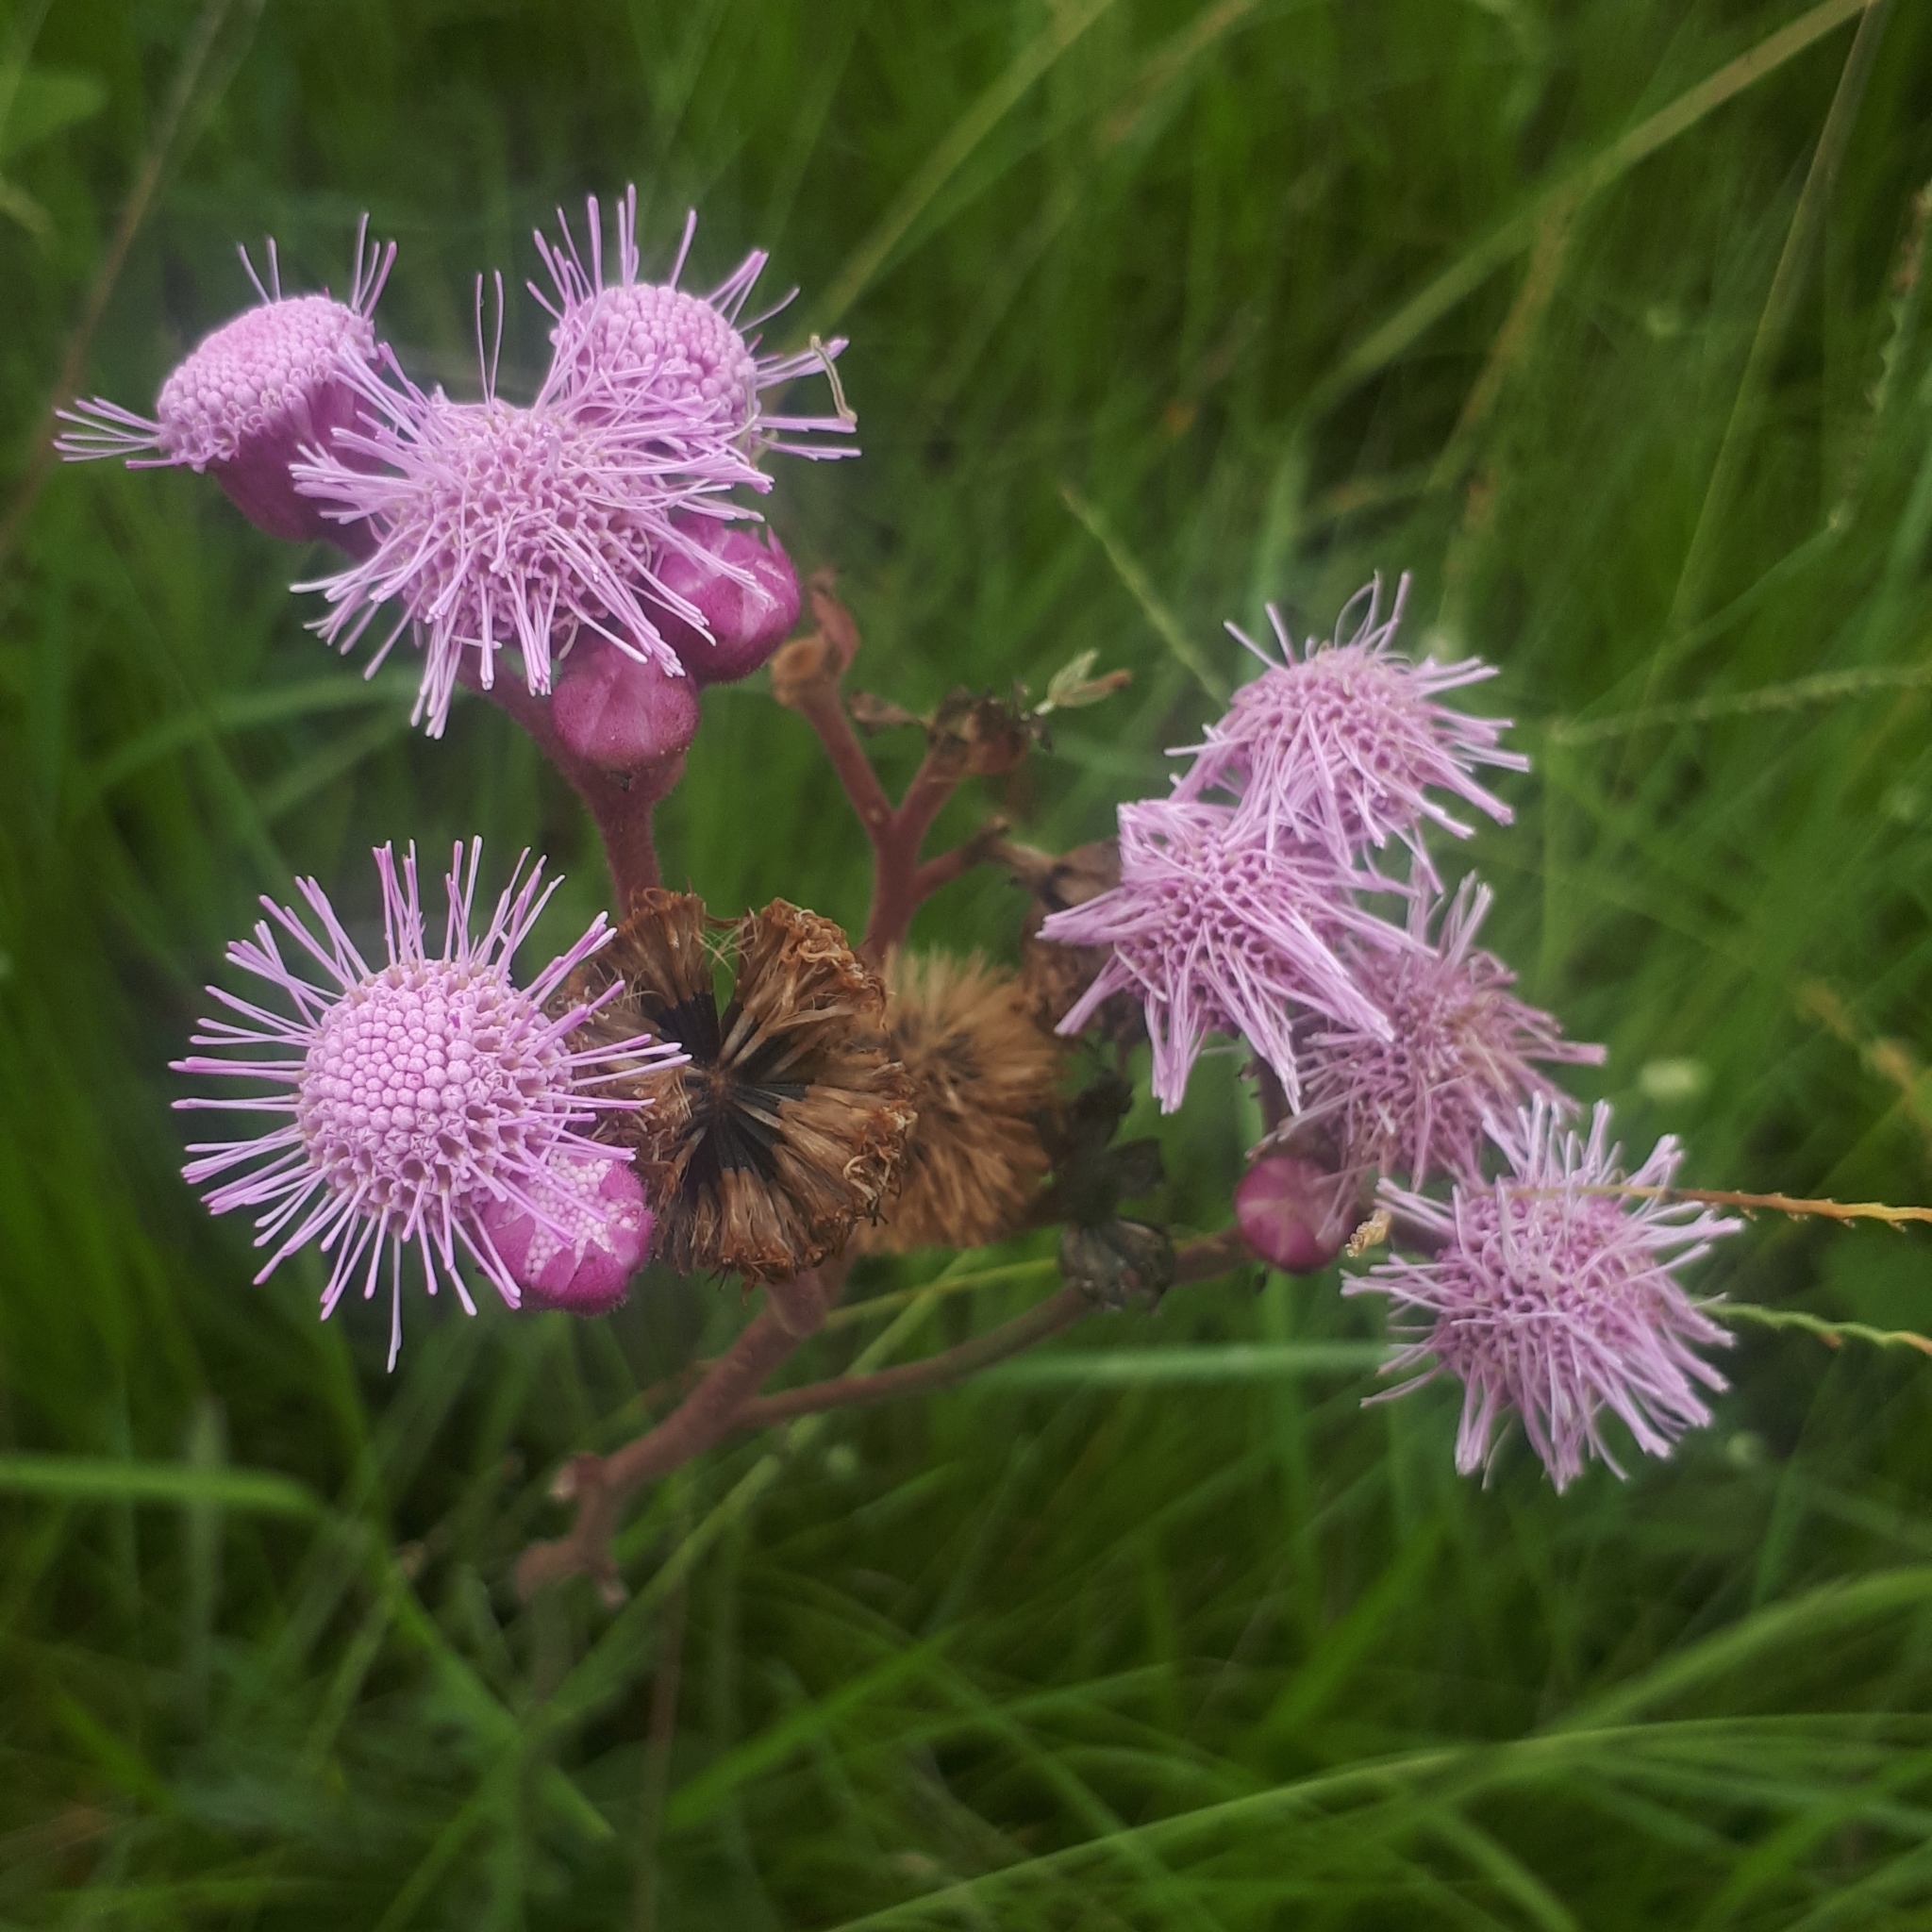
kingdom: Plantae
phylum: Tracheophyta
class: Magnoliopsida
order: Asterales
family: Asteraceae
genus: Campuloclinium
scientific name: Campuloclinium macrocephalum
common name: Pompomweed
